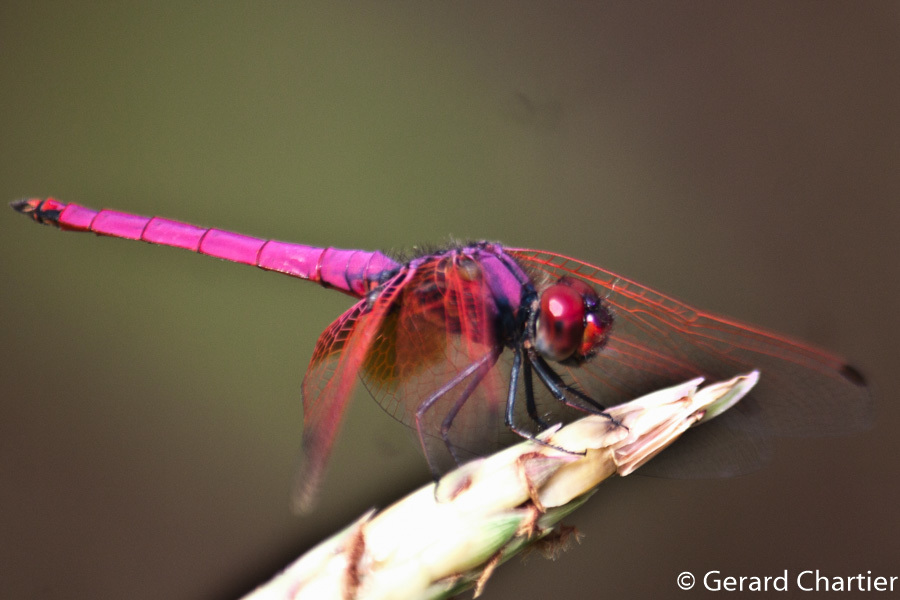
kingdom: Animalia
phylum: Arthropoda
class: Insecta
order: Odonata
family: Libellulidae
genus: Trithemis
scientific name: Trithemis aurora
